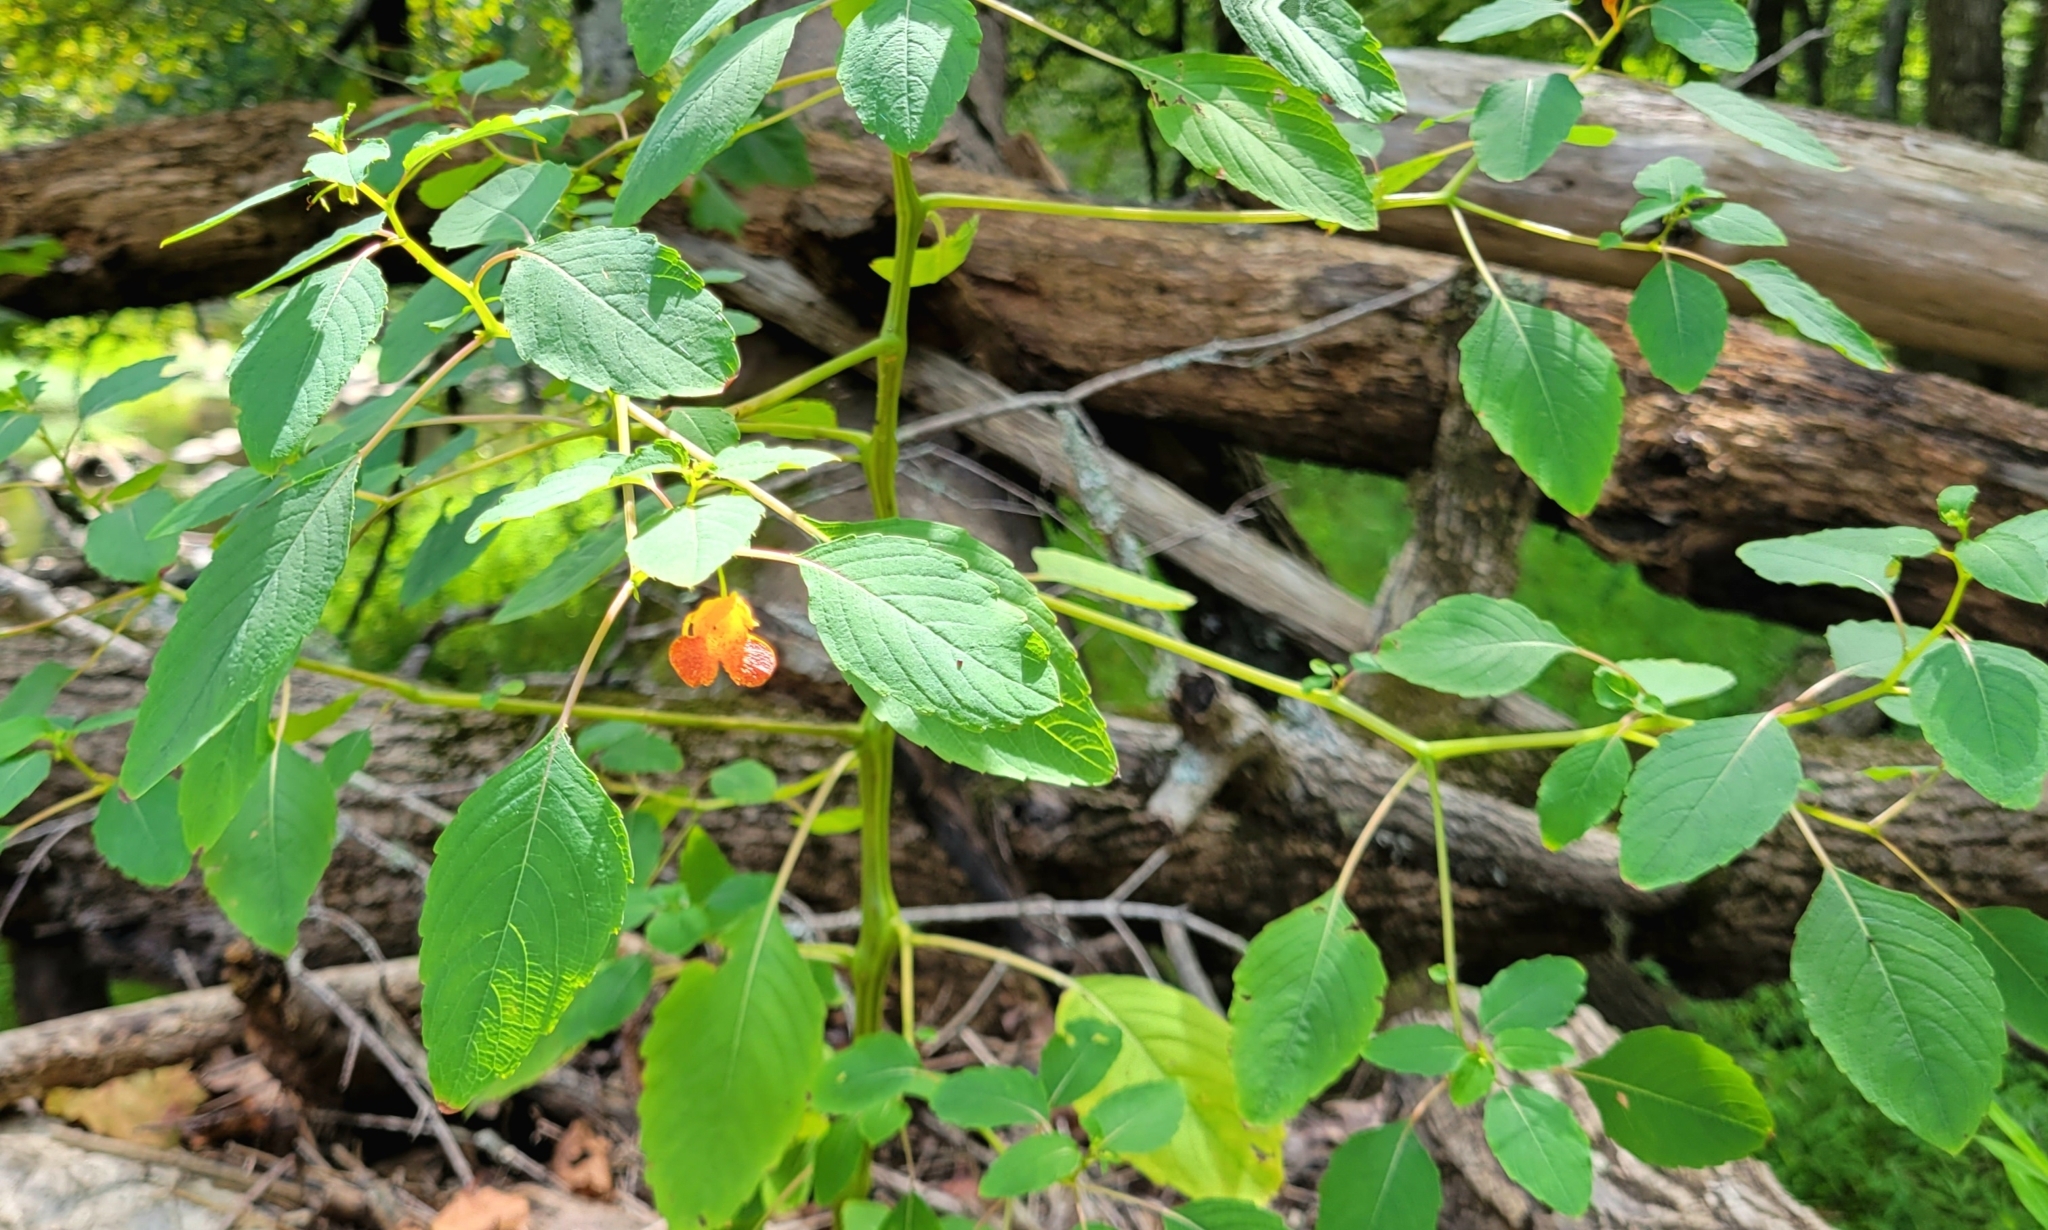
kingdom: Plantae
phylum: Tracheophyta
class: Magnoliopsida
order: Ericales
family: Balsaminaceae
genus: Impatiens
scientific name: Impatiens capensis
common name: Orange balsam
